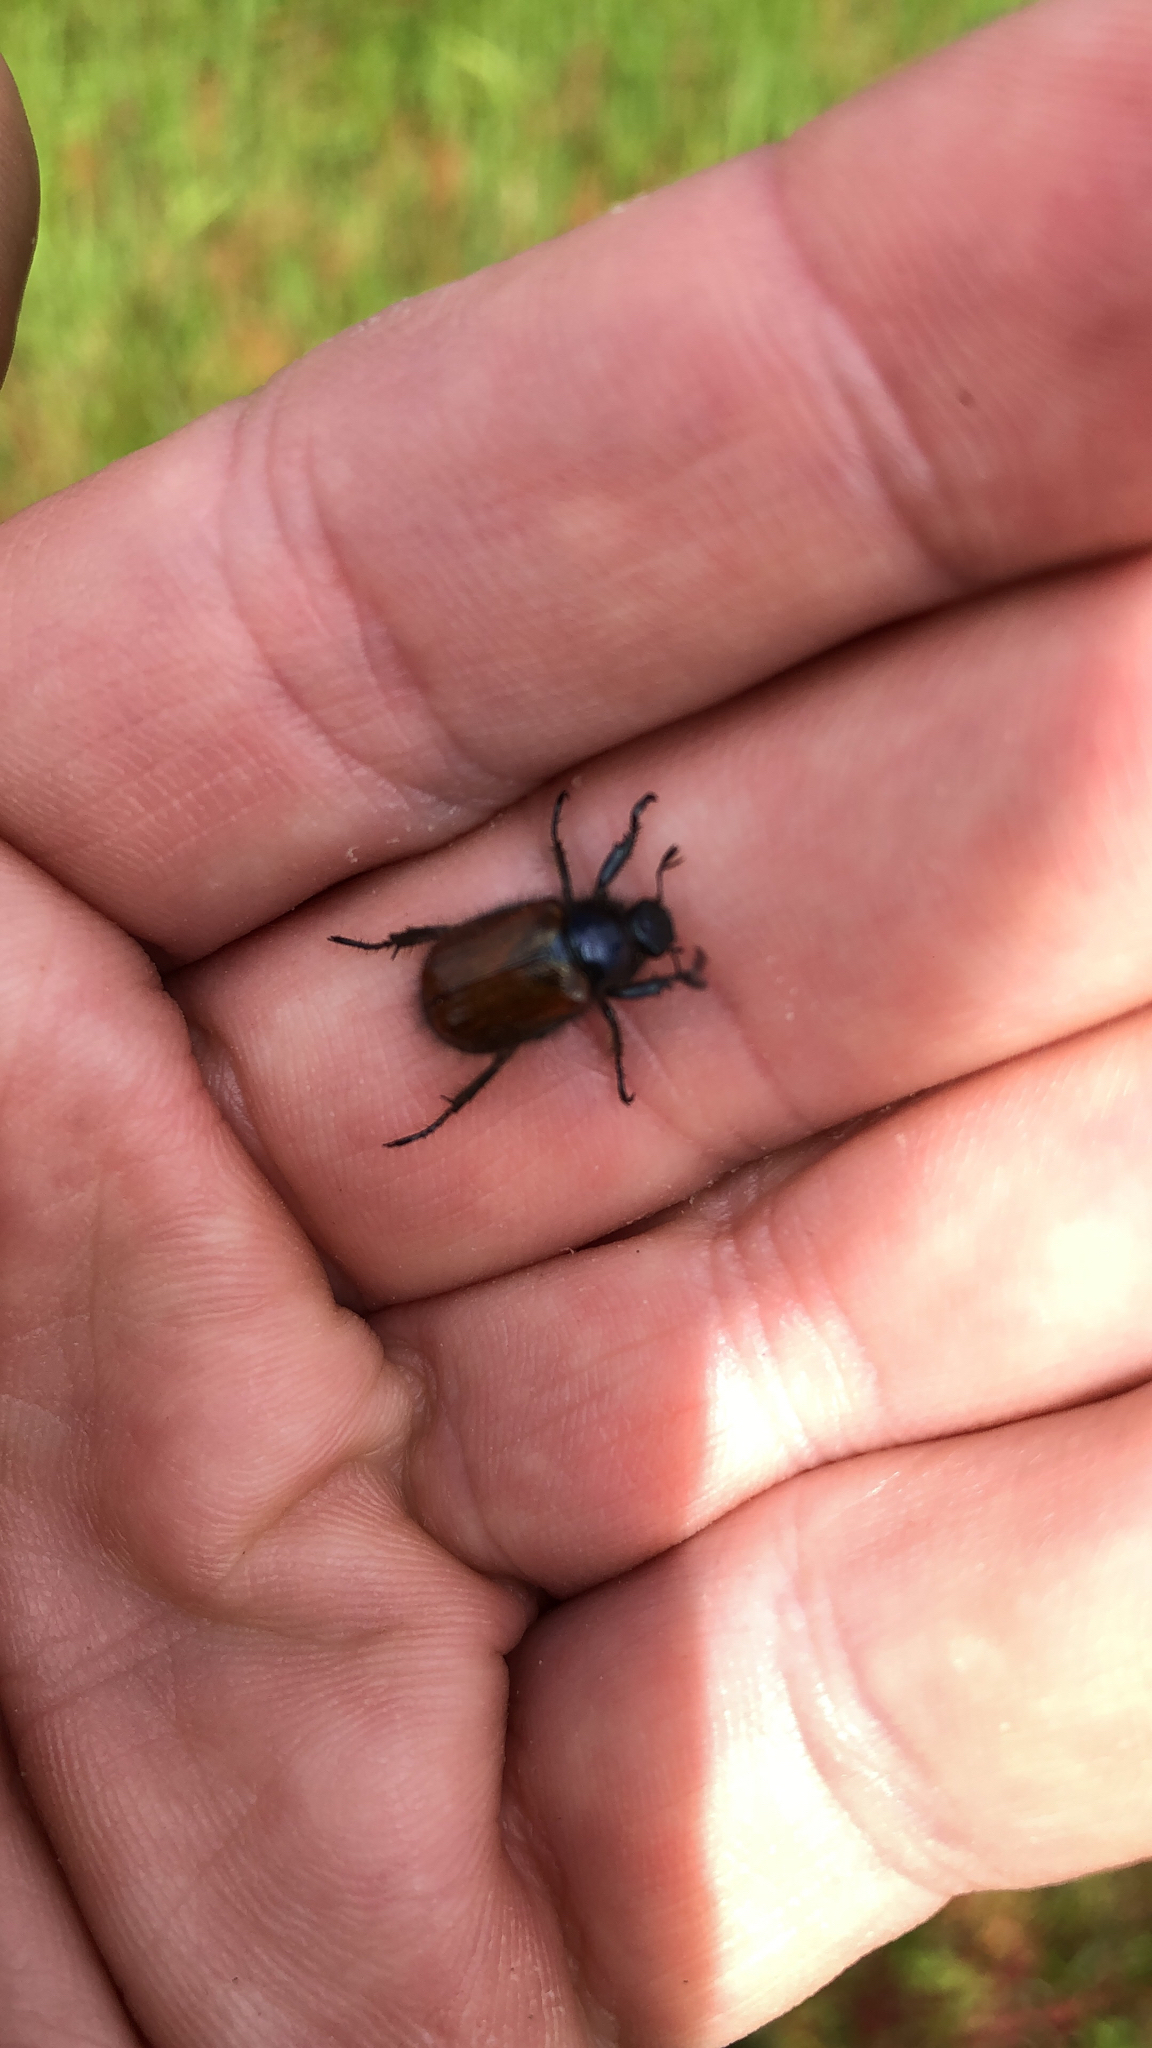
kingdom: Animalia
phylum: Arthropoda
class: Insecta
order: Coleoptera
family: Scarabaeidae
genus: Phyllopertha
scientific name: Phyllopertha horticola
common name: Garden chafer
